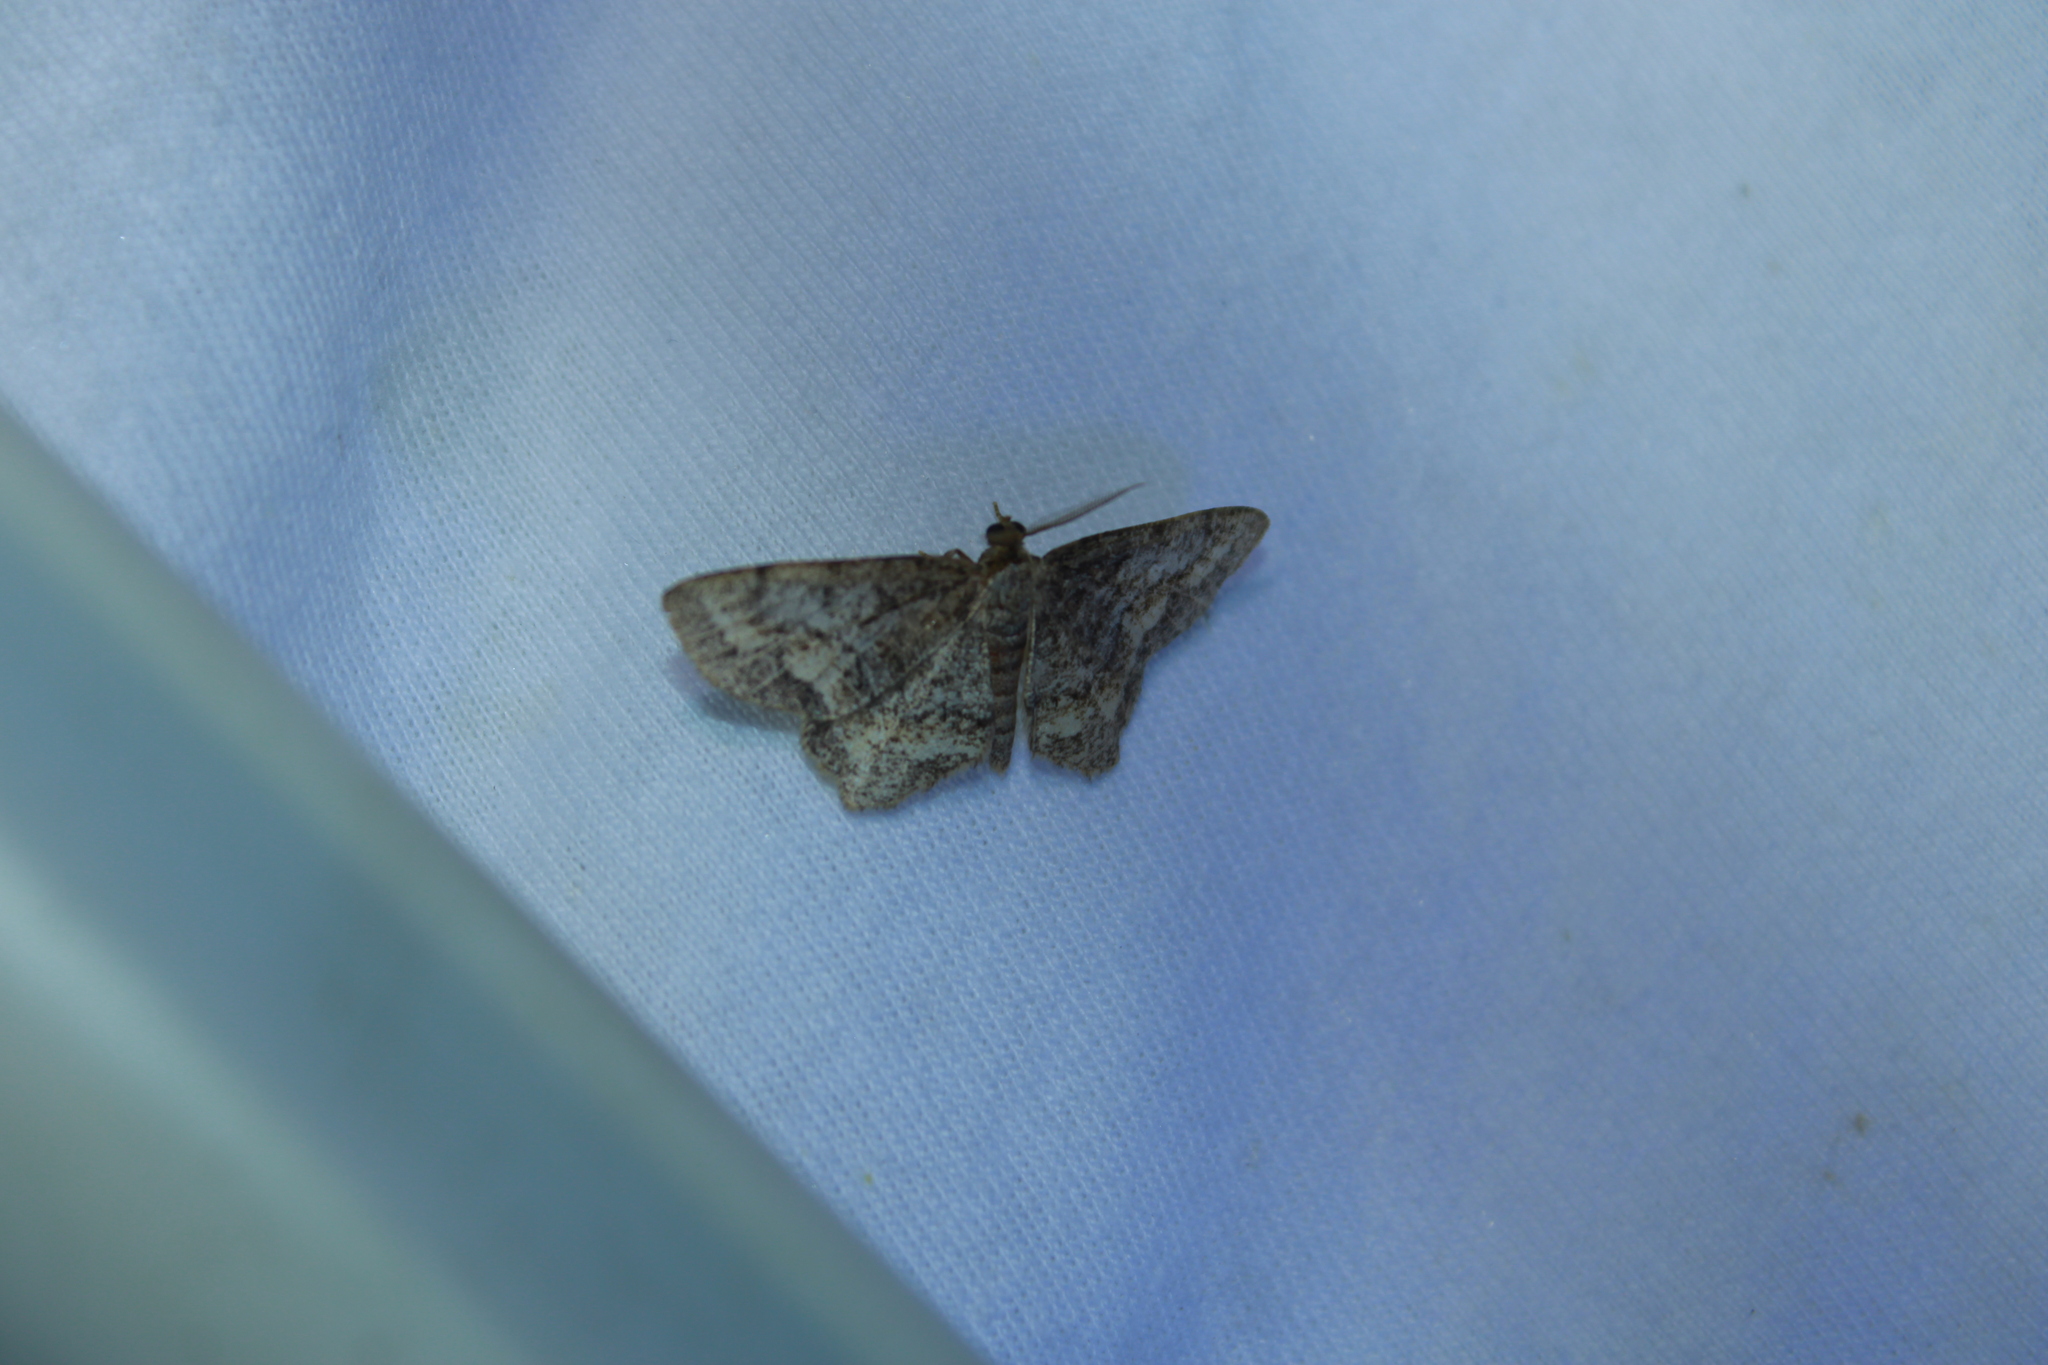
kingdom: Animalia
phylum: Arthropoda
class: Insecta
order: Lepidoptera
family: Geometridae
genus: Hypagyrtis
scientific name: Hypagyrtis unipunctata
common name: One-spotted variant
